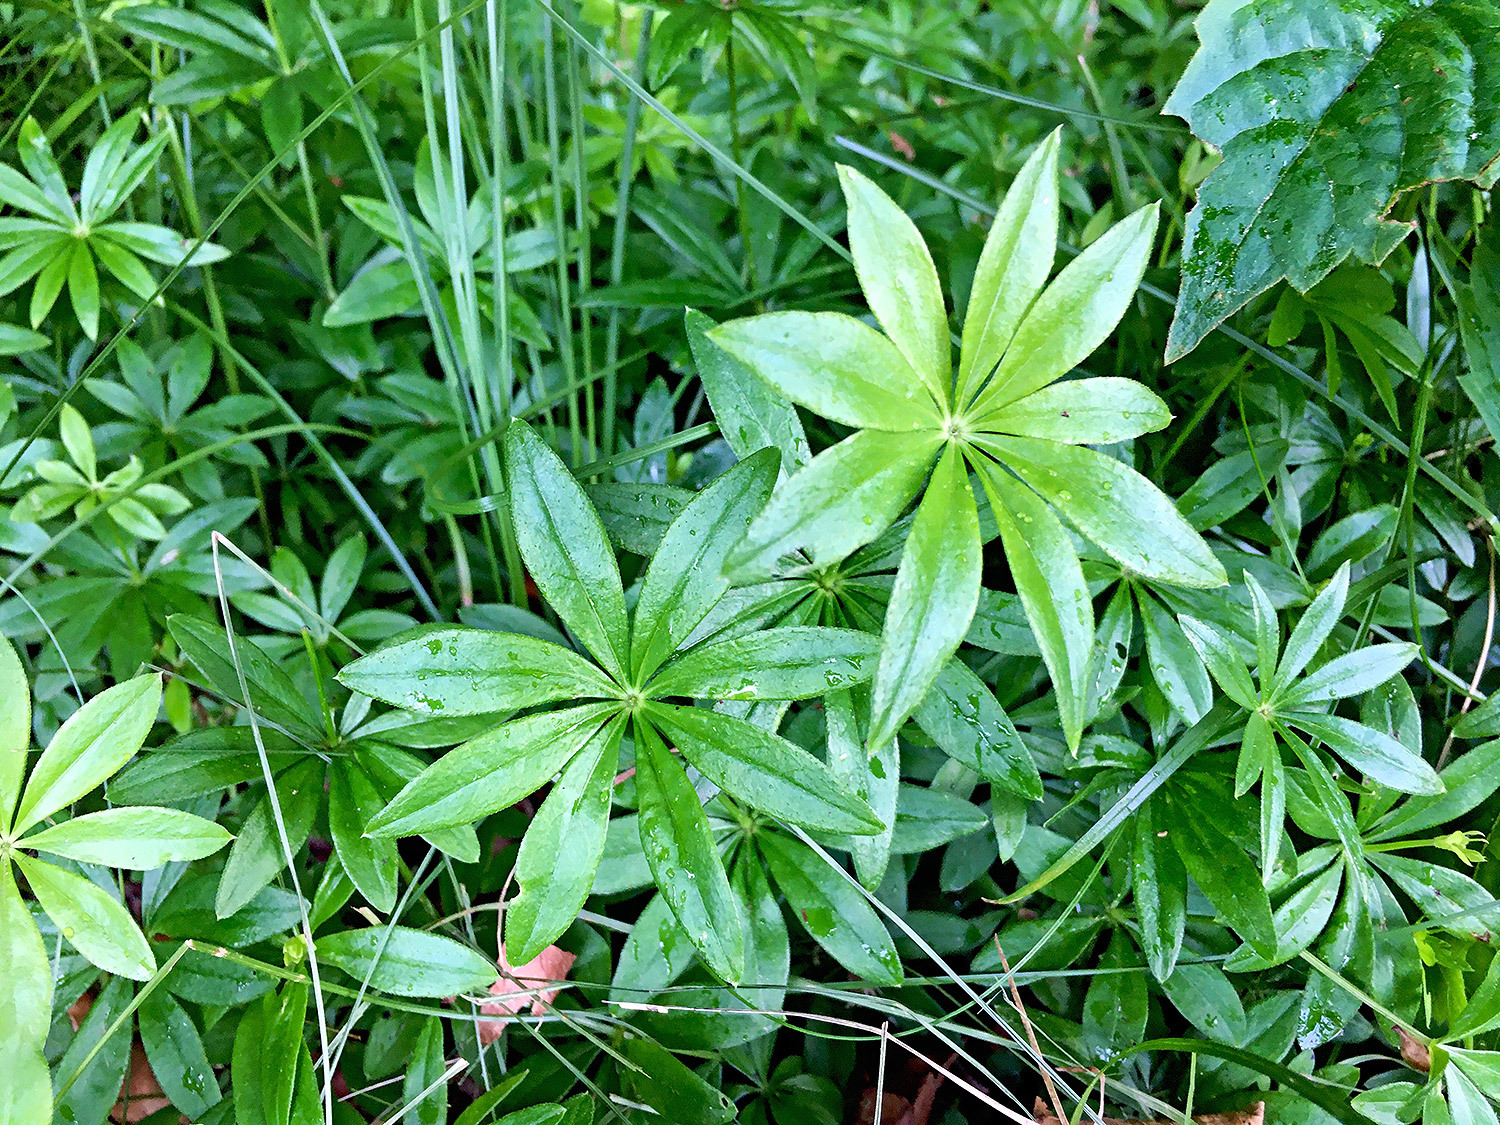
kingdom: Plantae
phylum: Tracheophyta
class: Magnoliopsida
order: Gentianales
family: Rubiaceae
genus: Galium
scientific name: Galium odoratum
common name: Sweet woodruff
